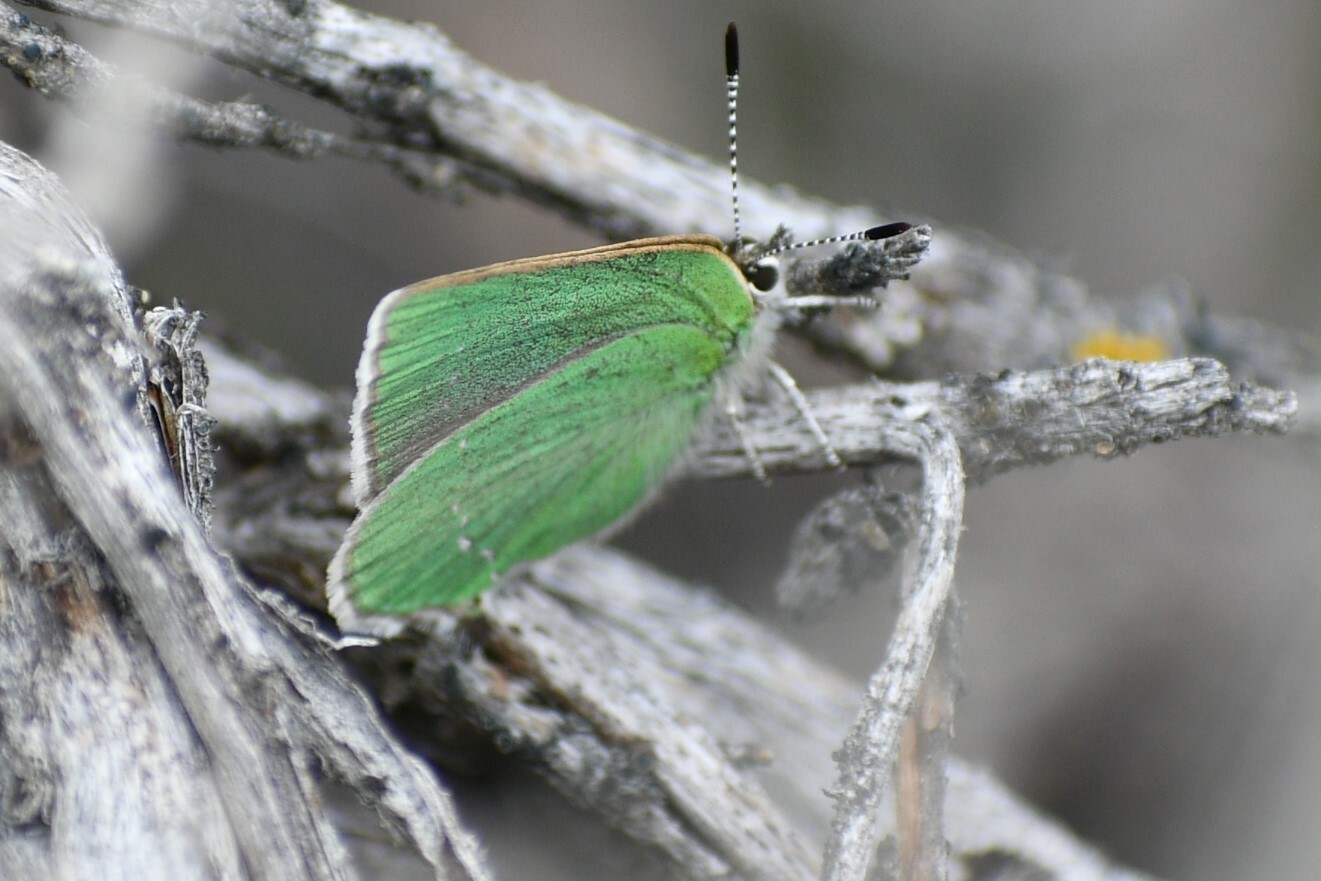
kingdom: Animalia
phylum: Arthropoda
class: Insecta
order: Lepidoptera
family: Lycaenidae
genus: Thecla
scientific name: Thecla sheridanii
